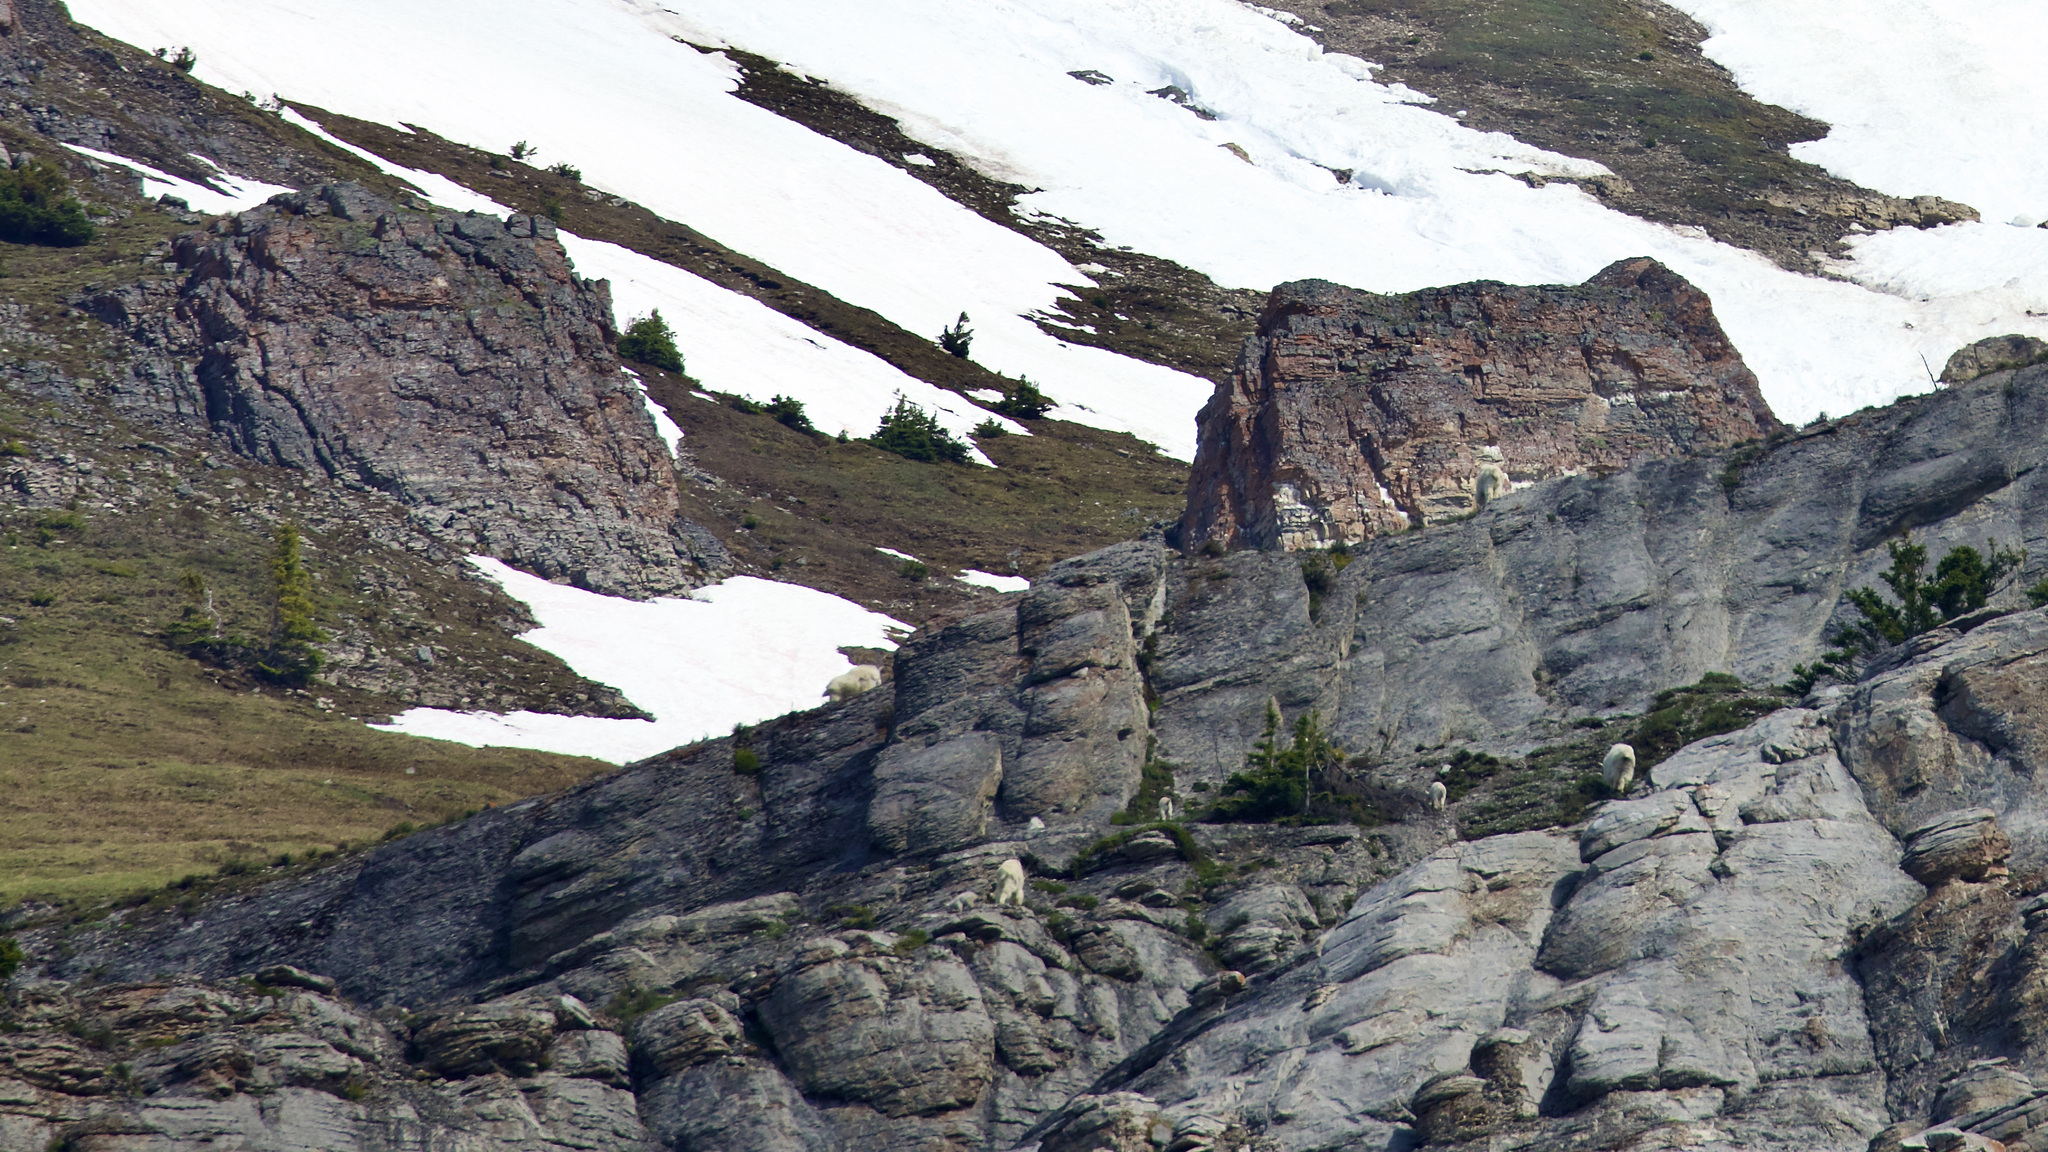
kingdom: Animalia
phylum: Chordata
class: Mammalia
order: Artiodactyla
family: Bovidae
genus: Oreamnos
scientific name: Oreamnos americanus
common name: Mountain goat
